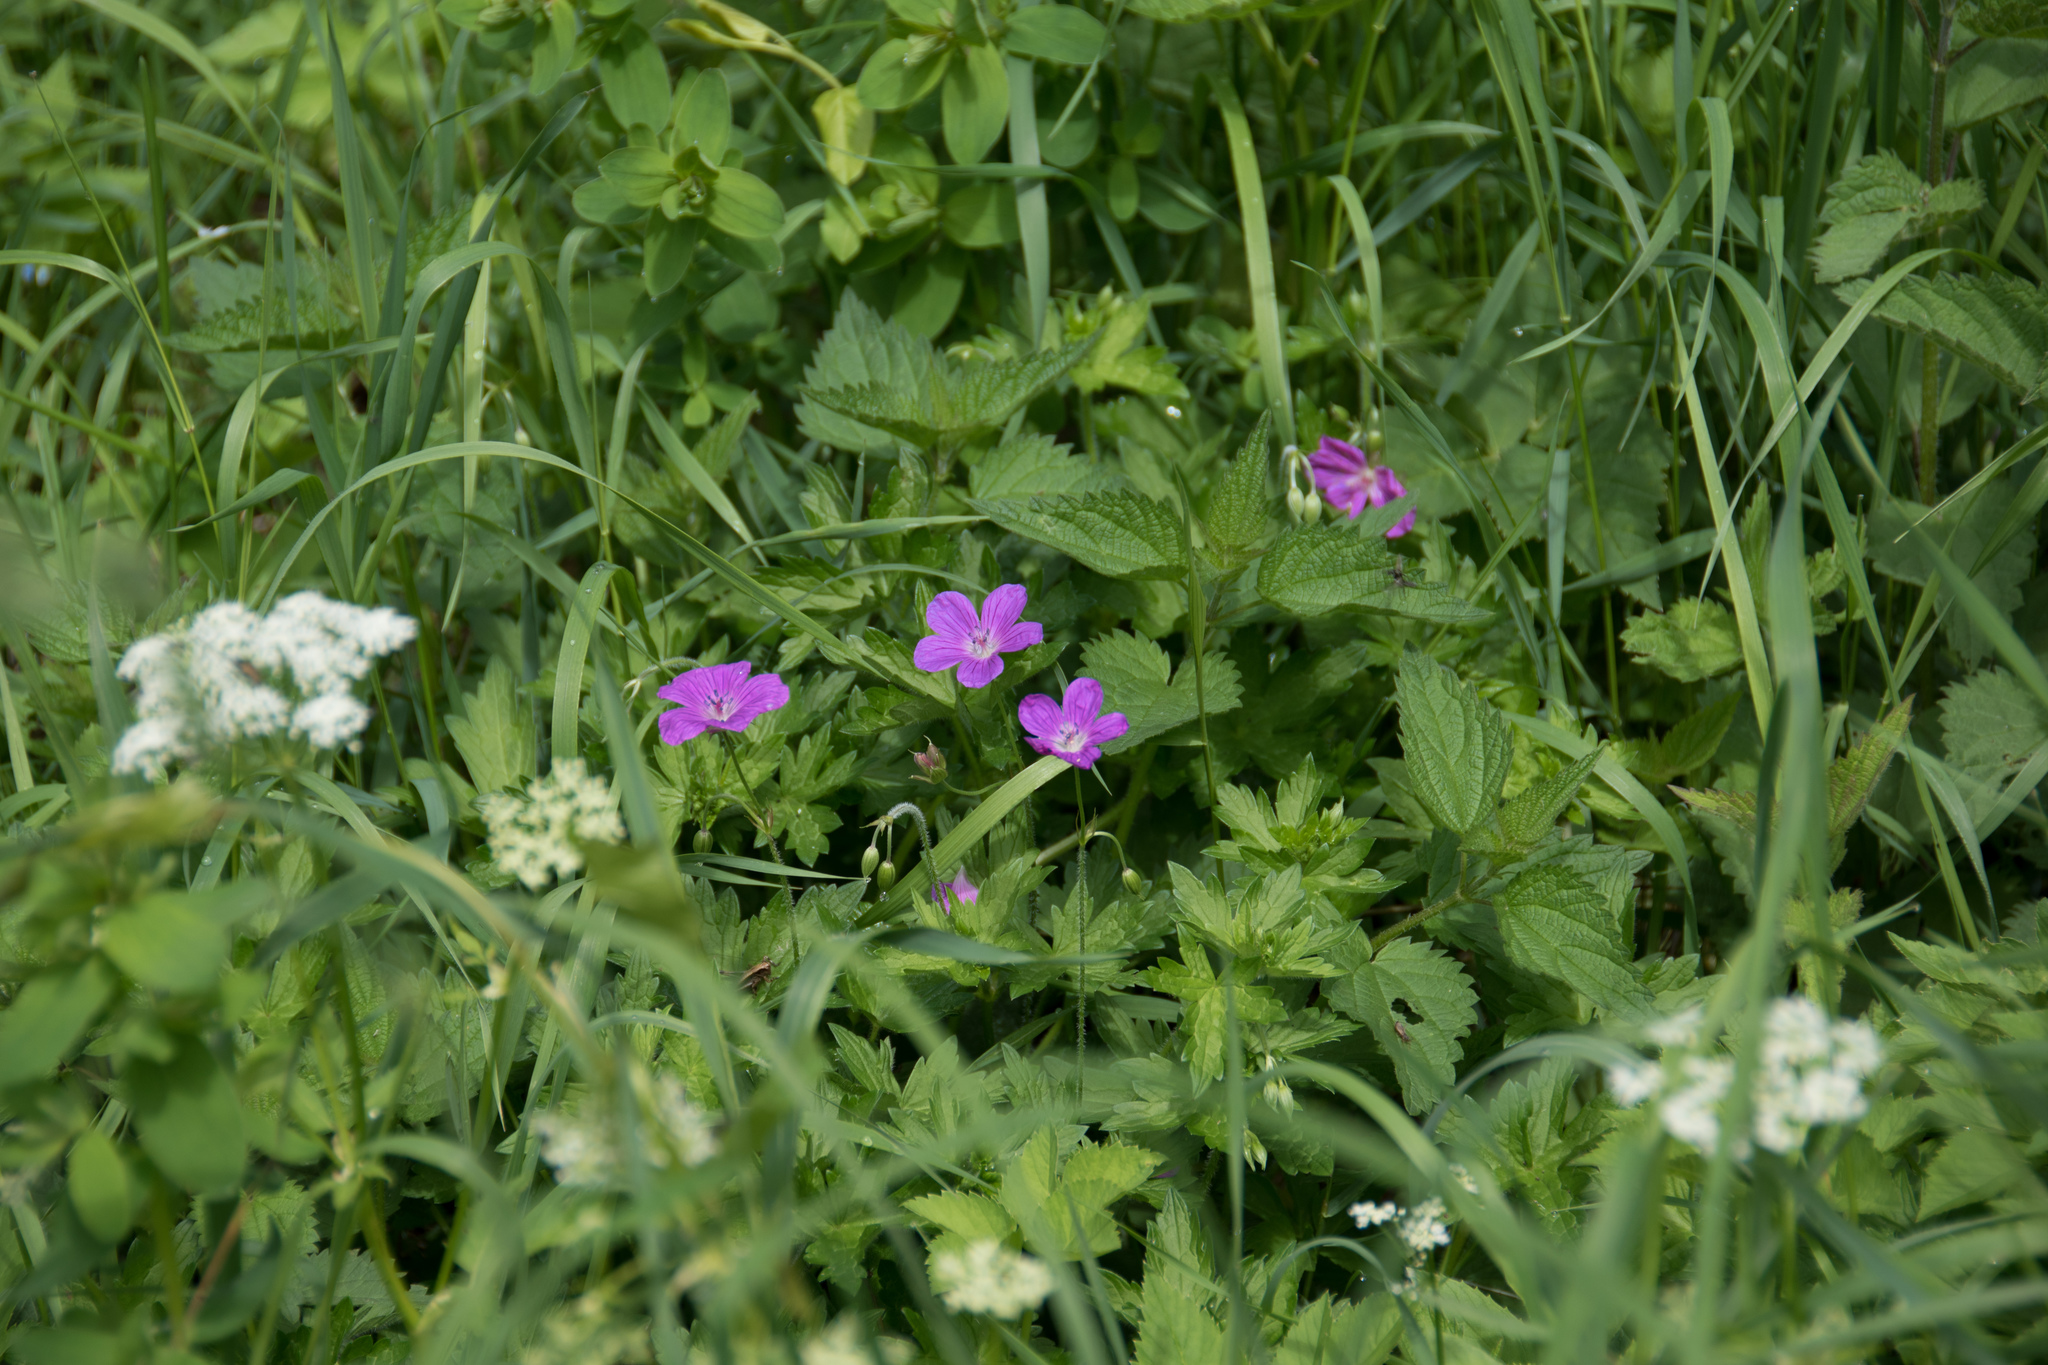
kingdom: Plantae
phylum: Tracheophyta
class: Magnoliopsida
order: Geraniales
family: Geraniaceae
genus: Geranium
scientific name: Geranium palustre
